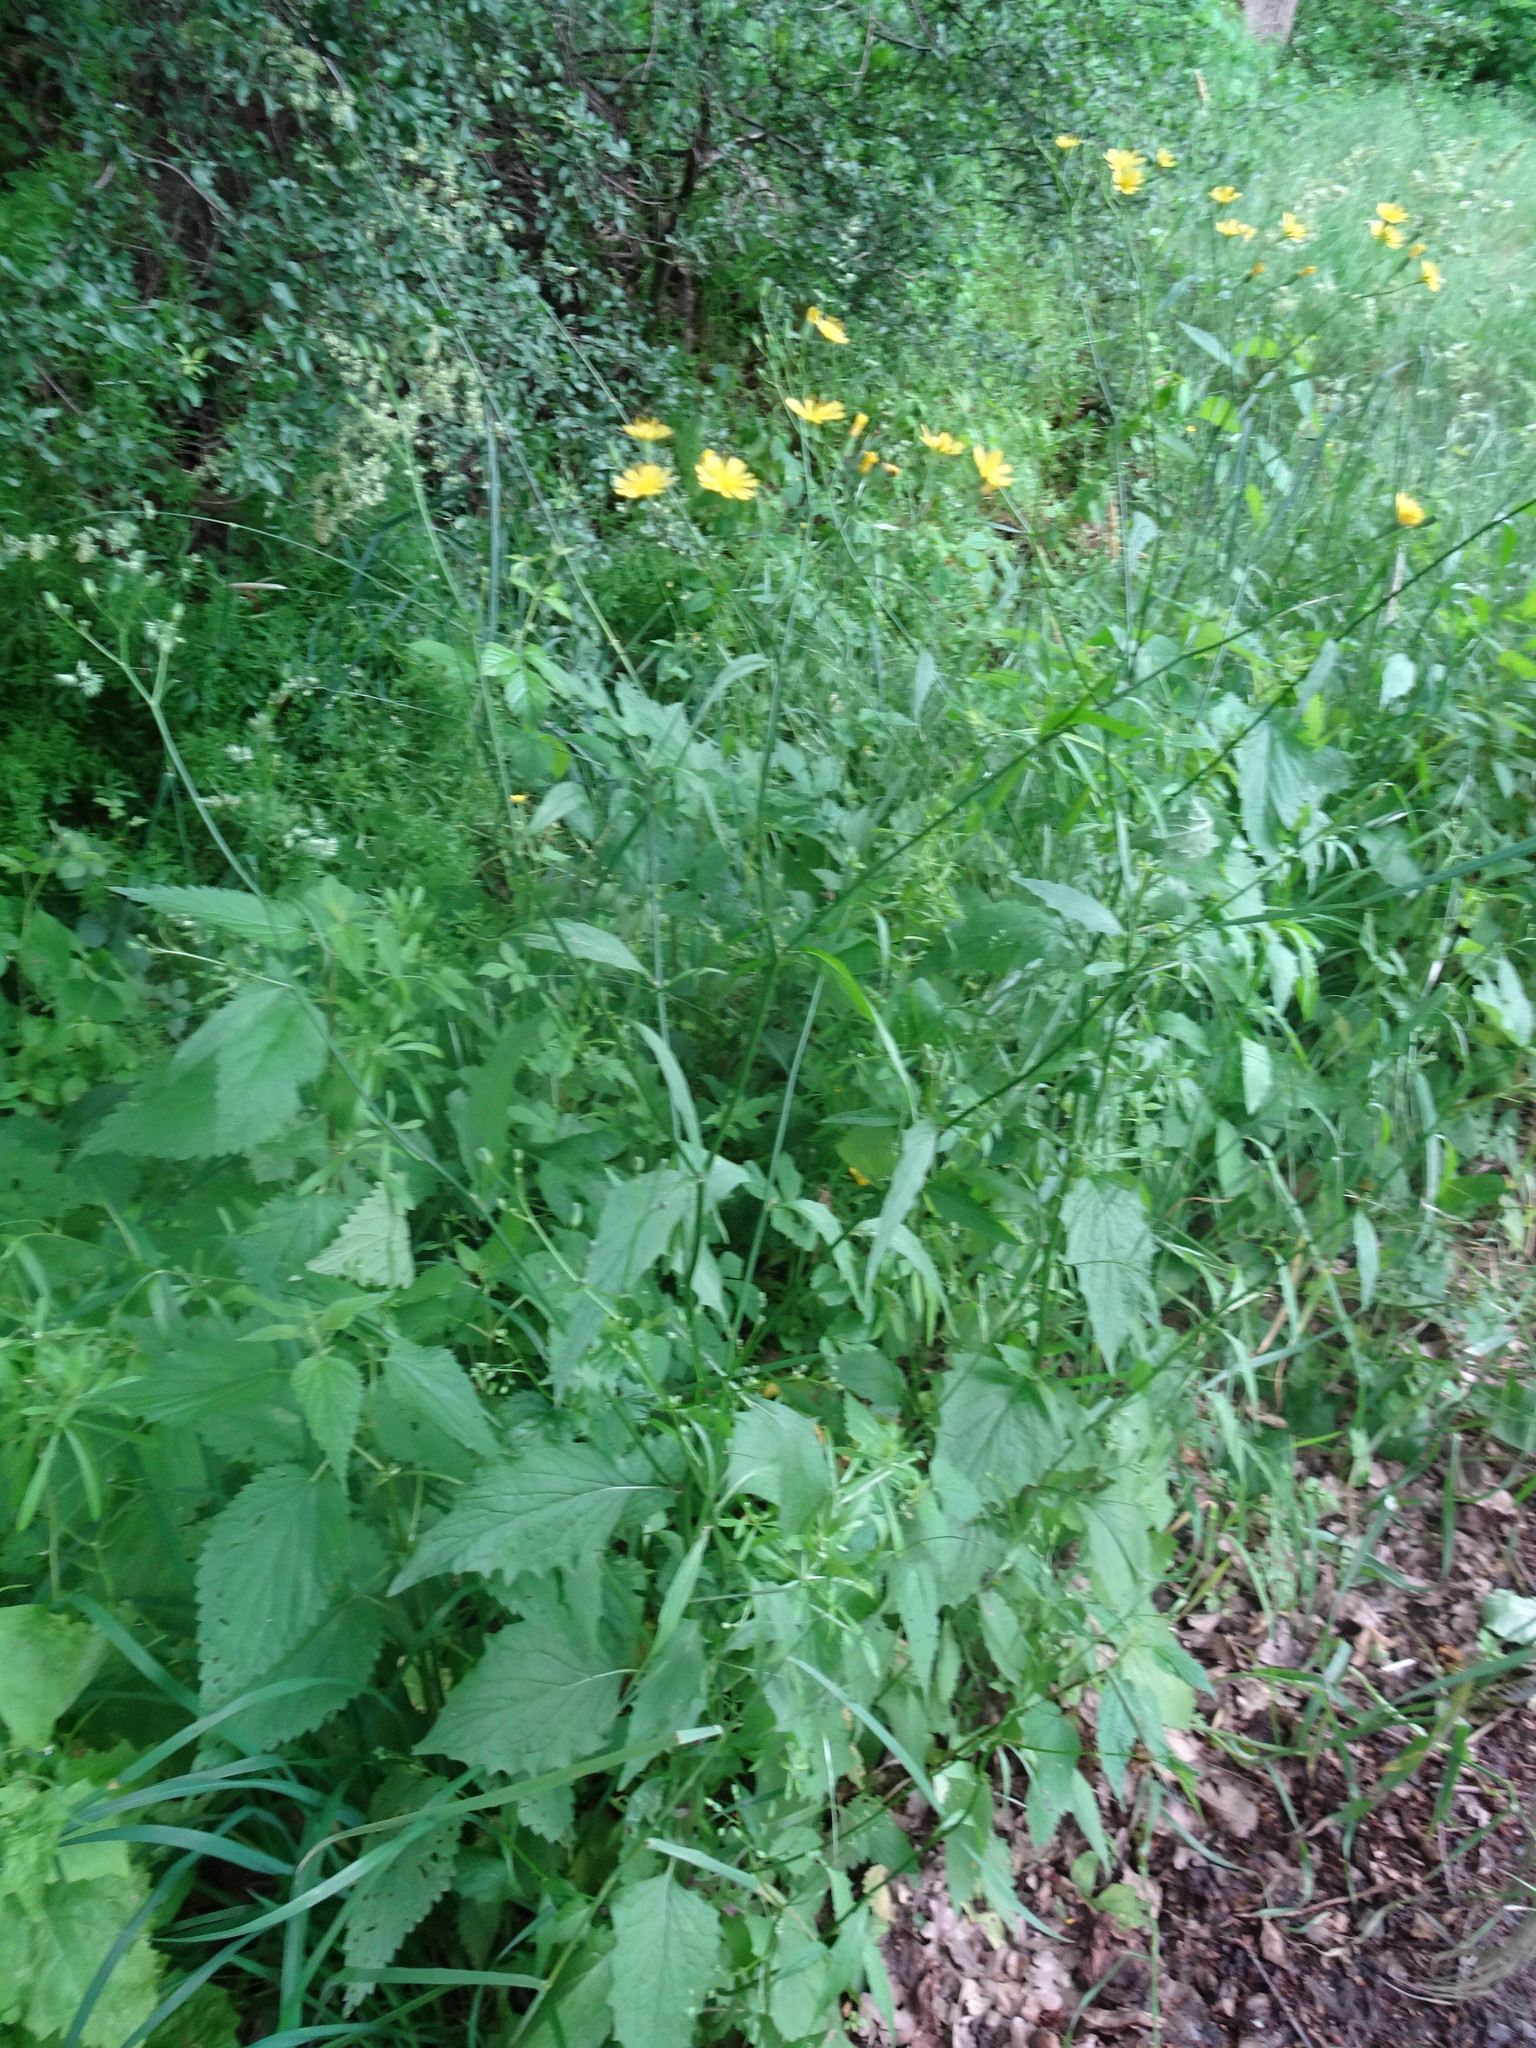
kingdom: Plantae
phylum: Tracheophyta
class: Magnoliopsida
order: Asterales
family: Asteraceae
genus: Lapsana
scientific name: Lapsana communis
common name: Nipplewort
